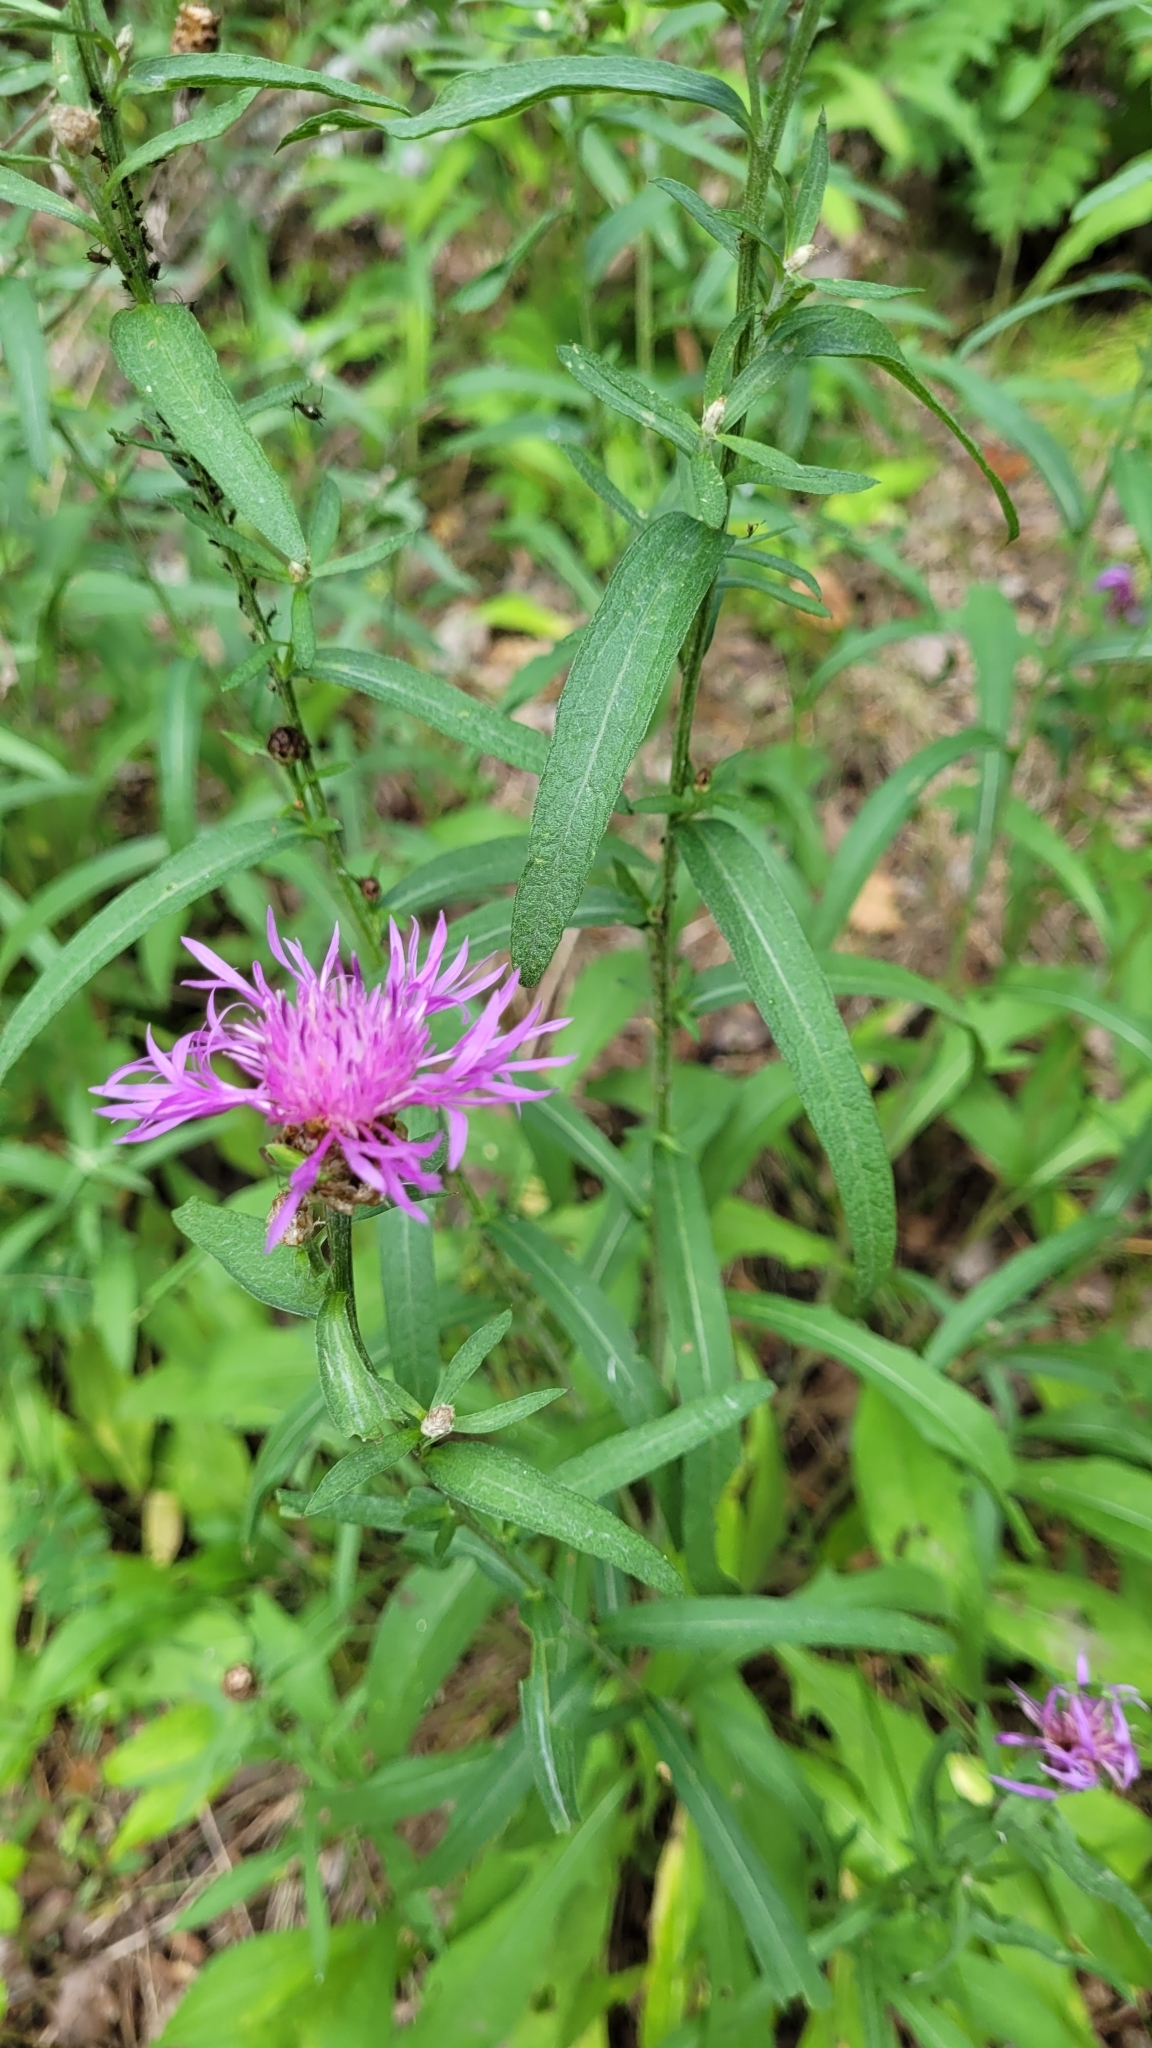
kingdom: Plantae
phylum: Tracheophyta
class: Magnoliopsida
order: Asterales
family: Asteraceae
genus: Centaurea
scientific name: Centaurea jacea
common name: Brown knapweed
